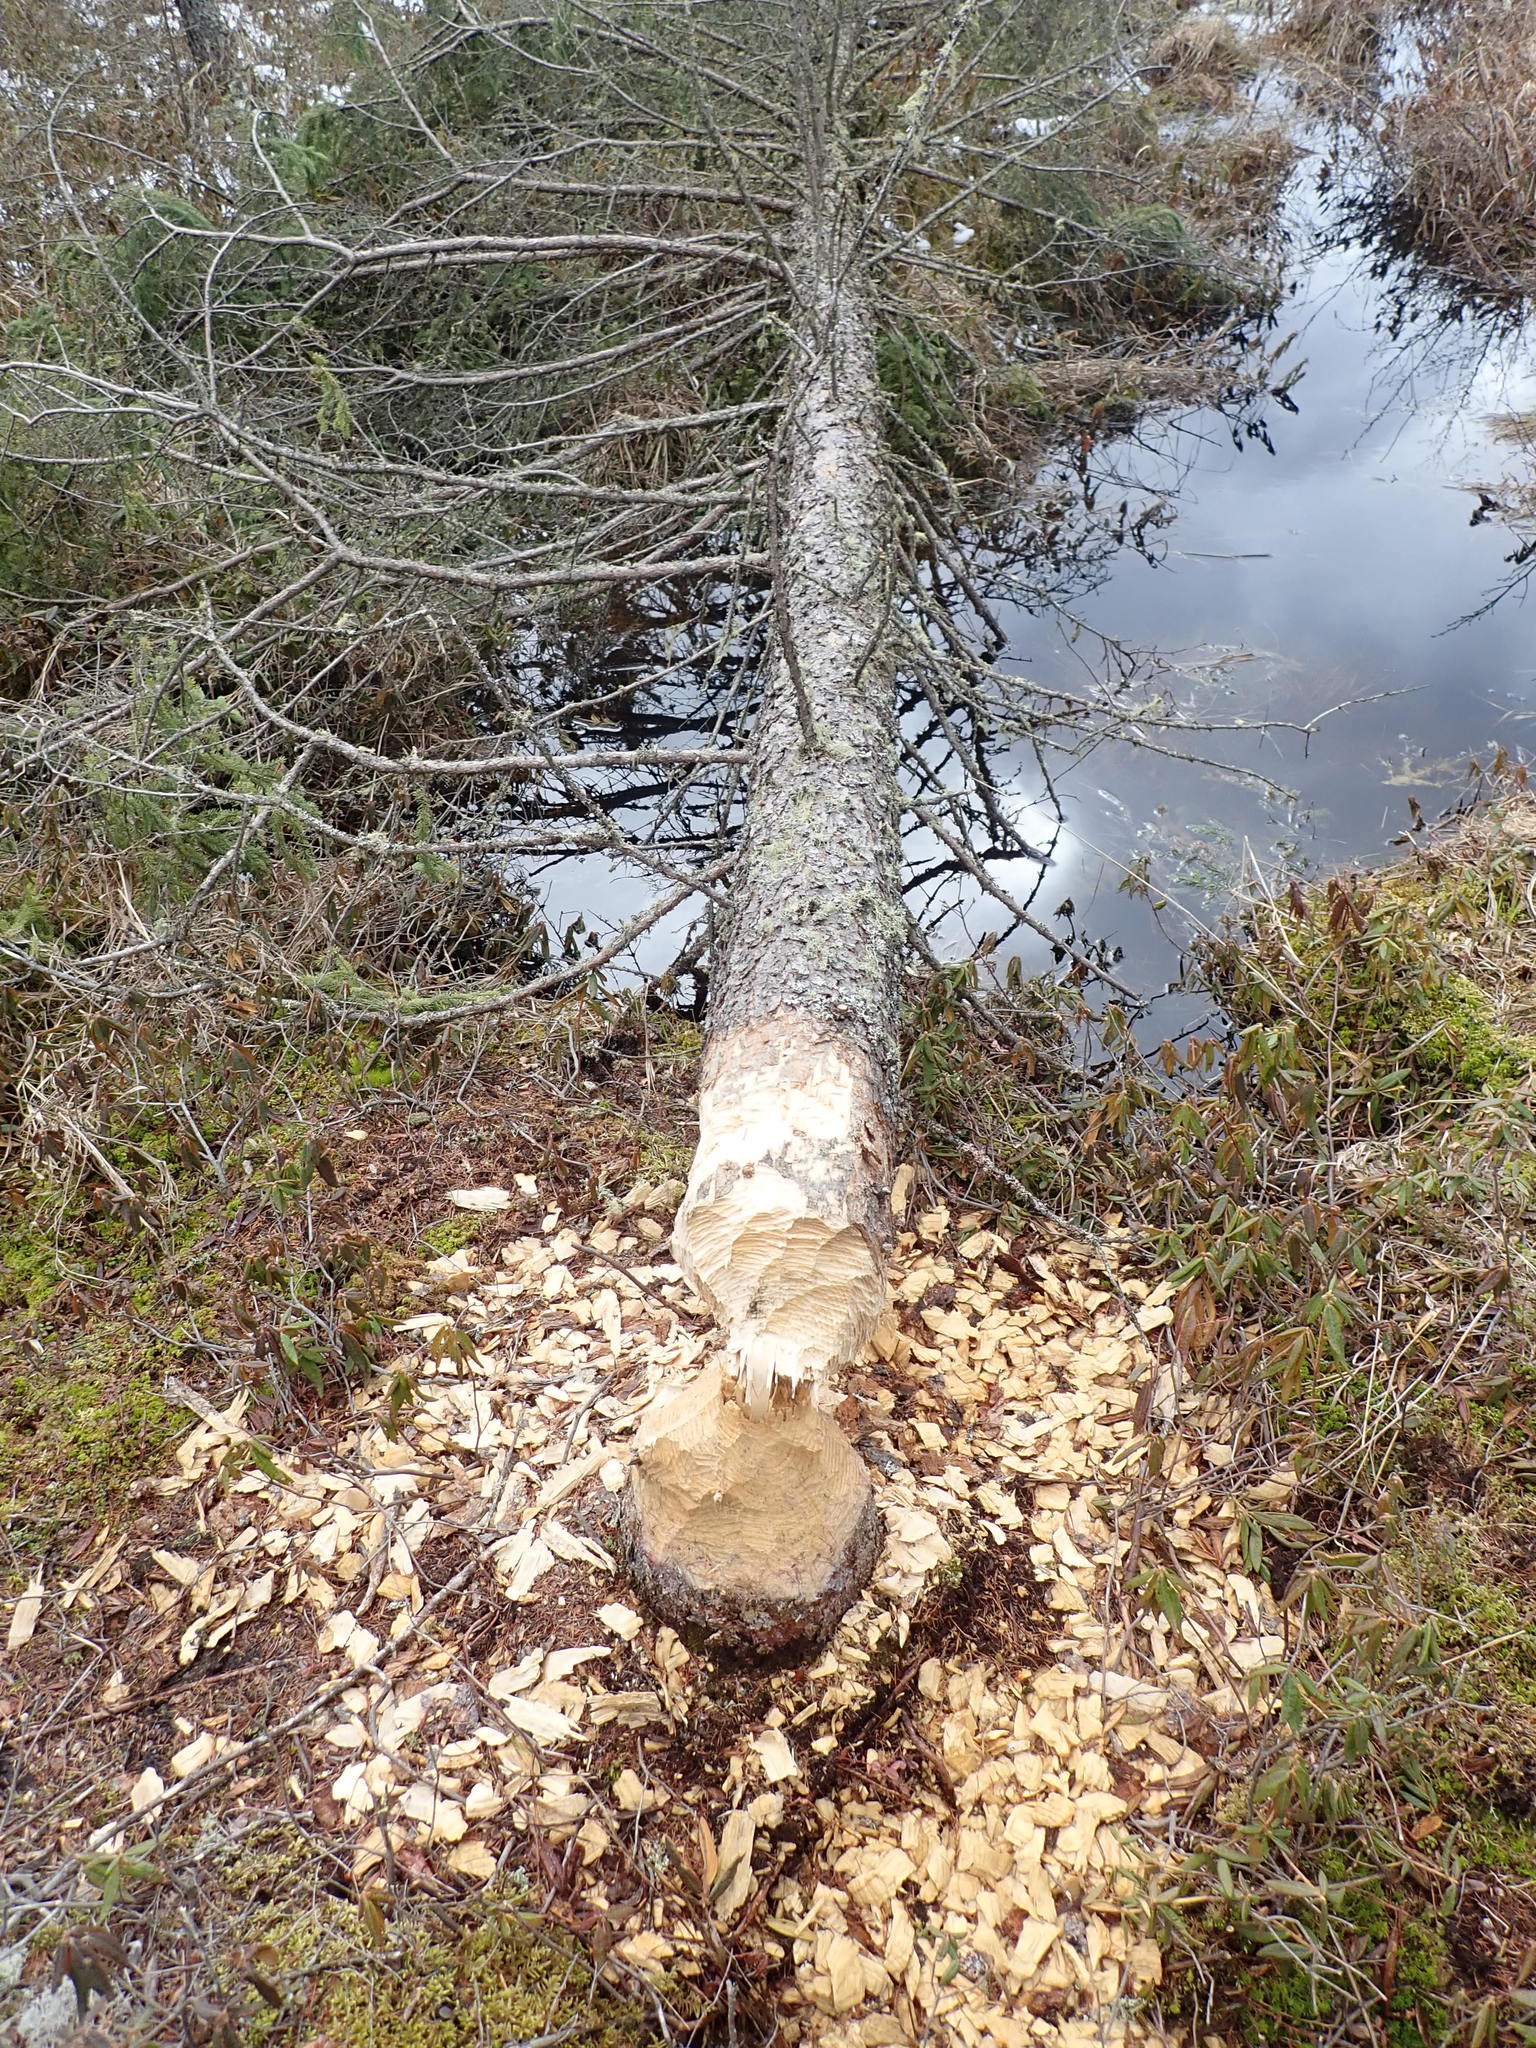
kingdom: Animalia
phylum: Chordata
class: Mammalia
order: Rodentia
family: Castoridae
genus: Castor
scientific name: Castor canadensis
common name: American beaver
